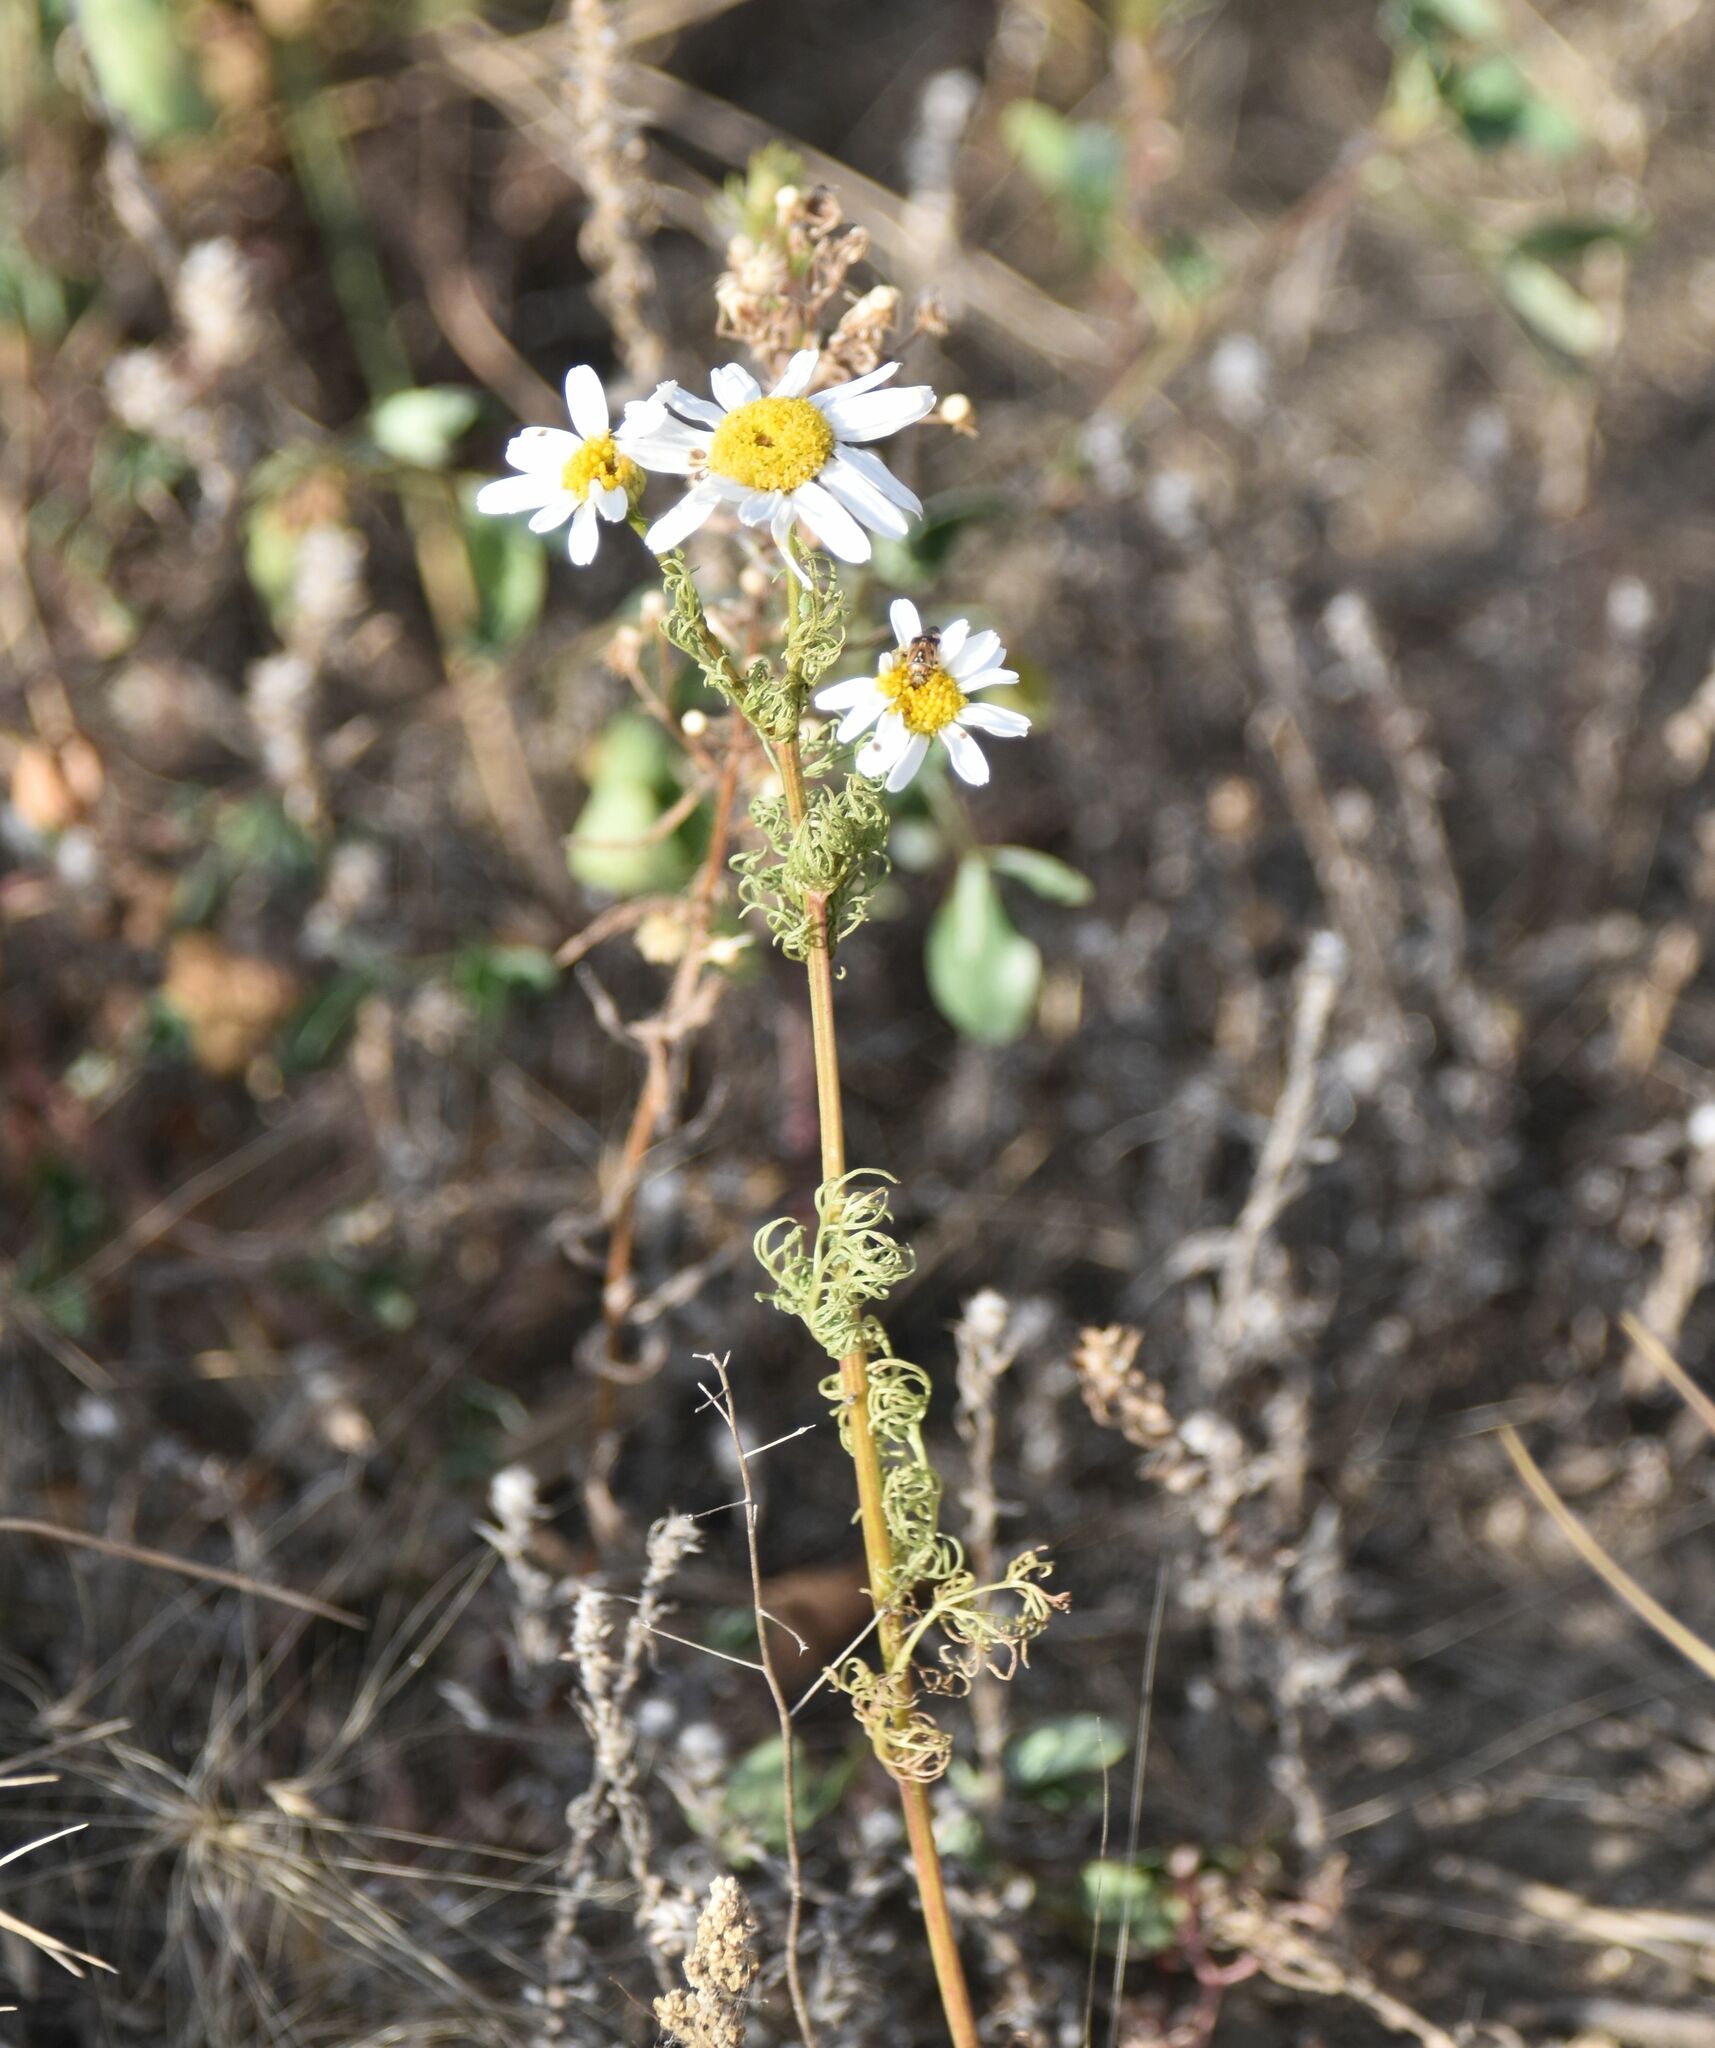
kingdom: Plantae
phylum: Tracheophyta
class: Magnoliopsida
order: Asterales
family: Asteraceae
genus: Tripleurospermum
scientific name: Tripleurospermum inodorum
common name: Scentless mayweed
